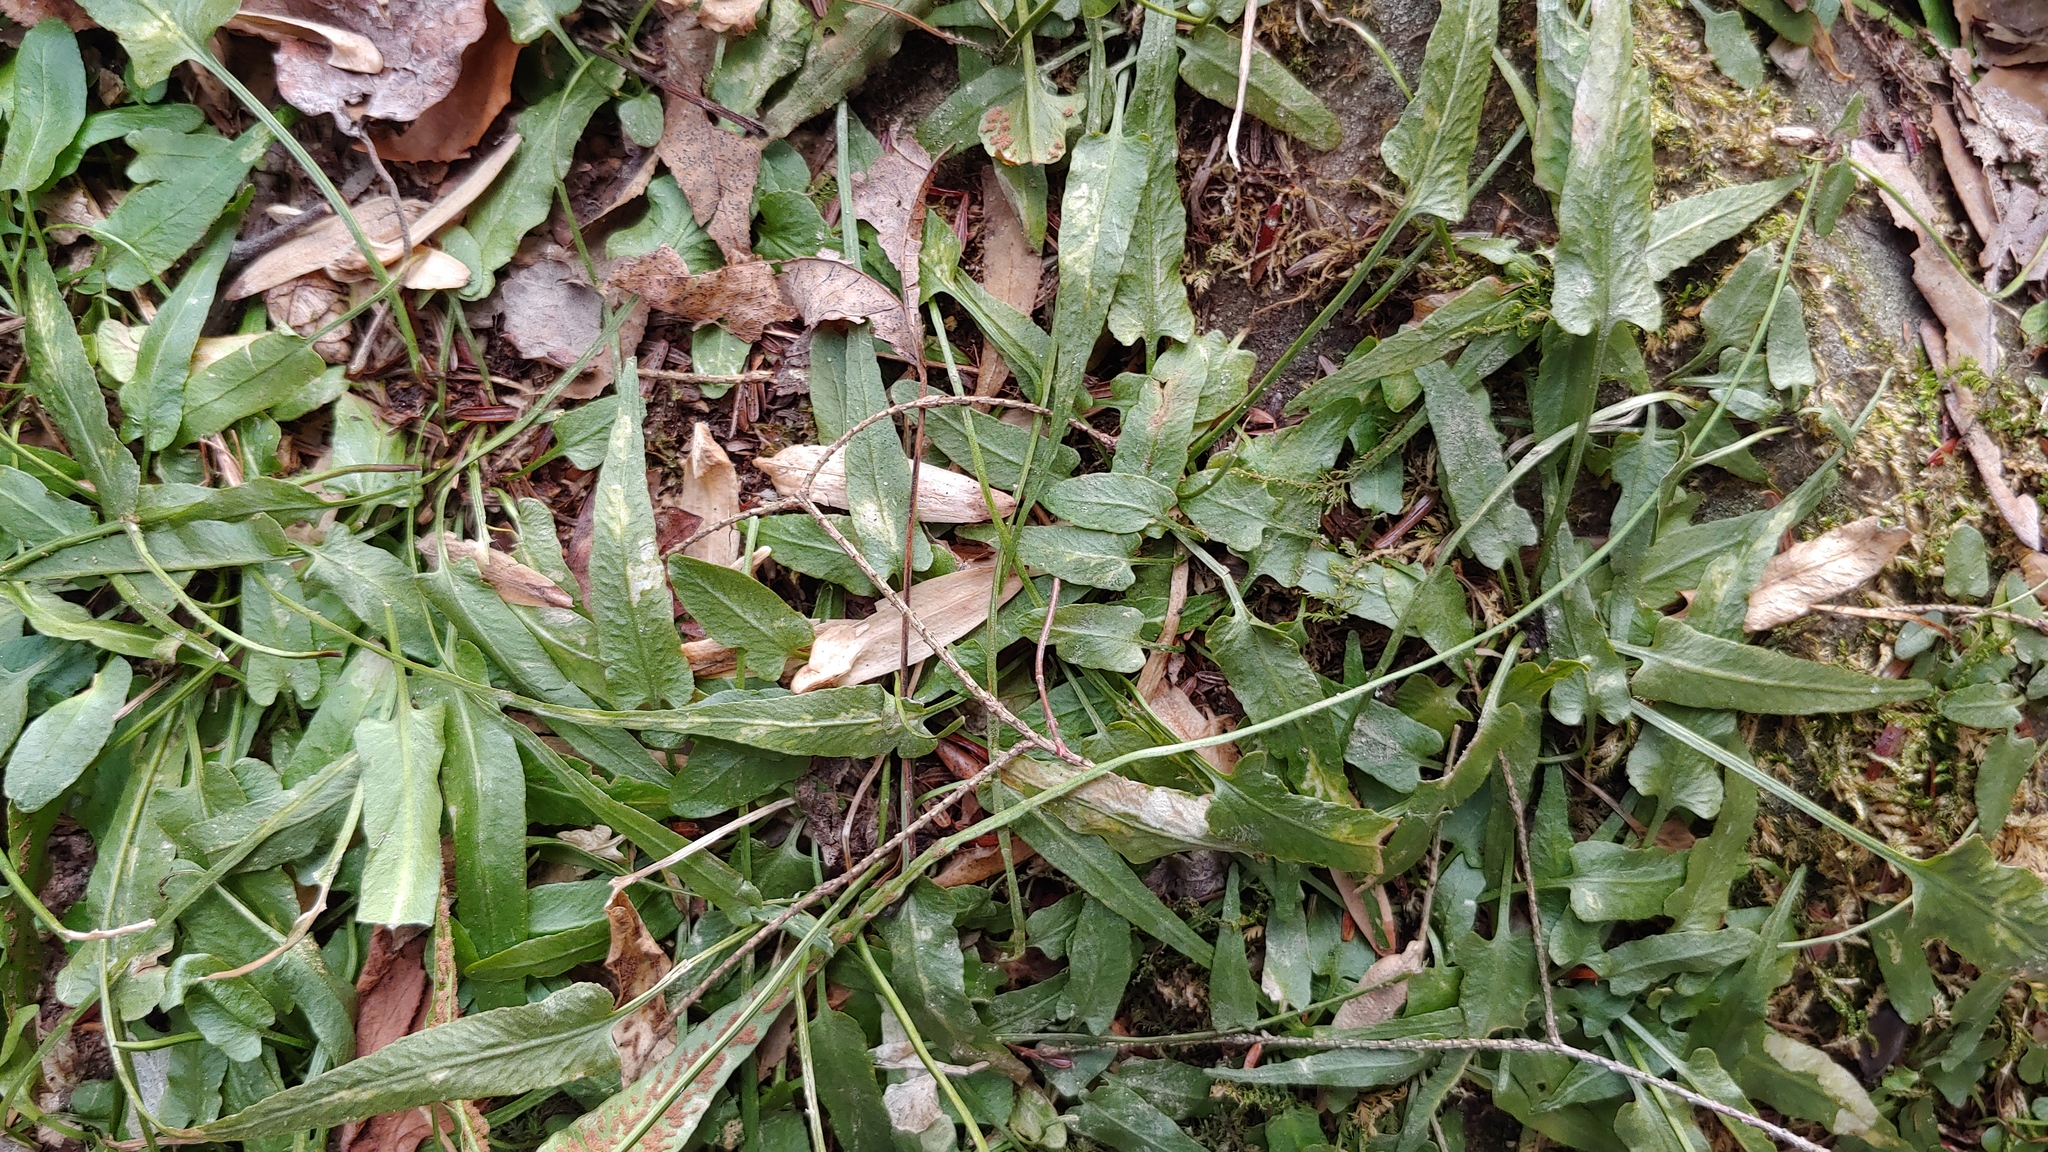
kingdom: Plantae
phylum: Tracheophyta
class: Polypodiopsida
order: Polypodiales
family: Aspleniaceae
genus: Asplenium
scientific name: Asplenium rhizophyllum
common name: Walking fern
